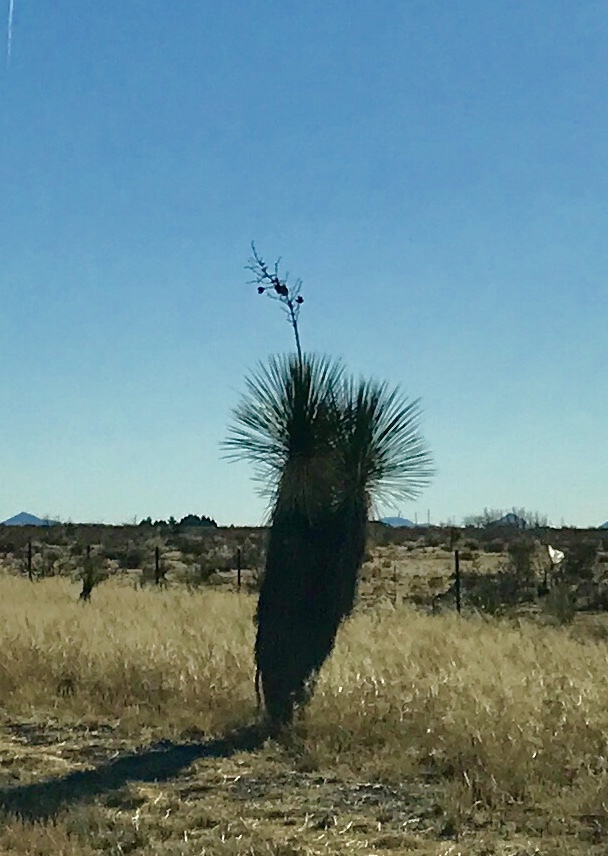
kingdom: Plantae
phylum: Tracheophyta
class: Liliopsida
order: Asparagales
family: Asparagaceae
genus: Yucca
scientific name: Yucca elata
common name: Palmella
